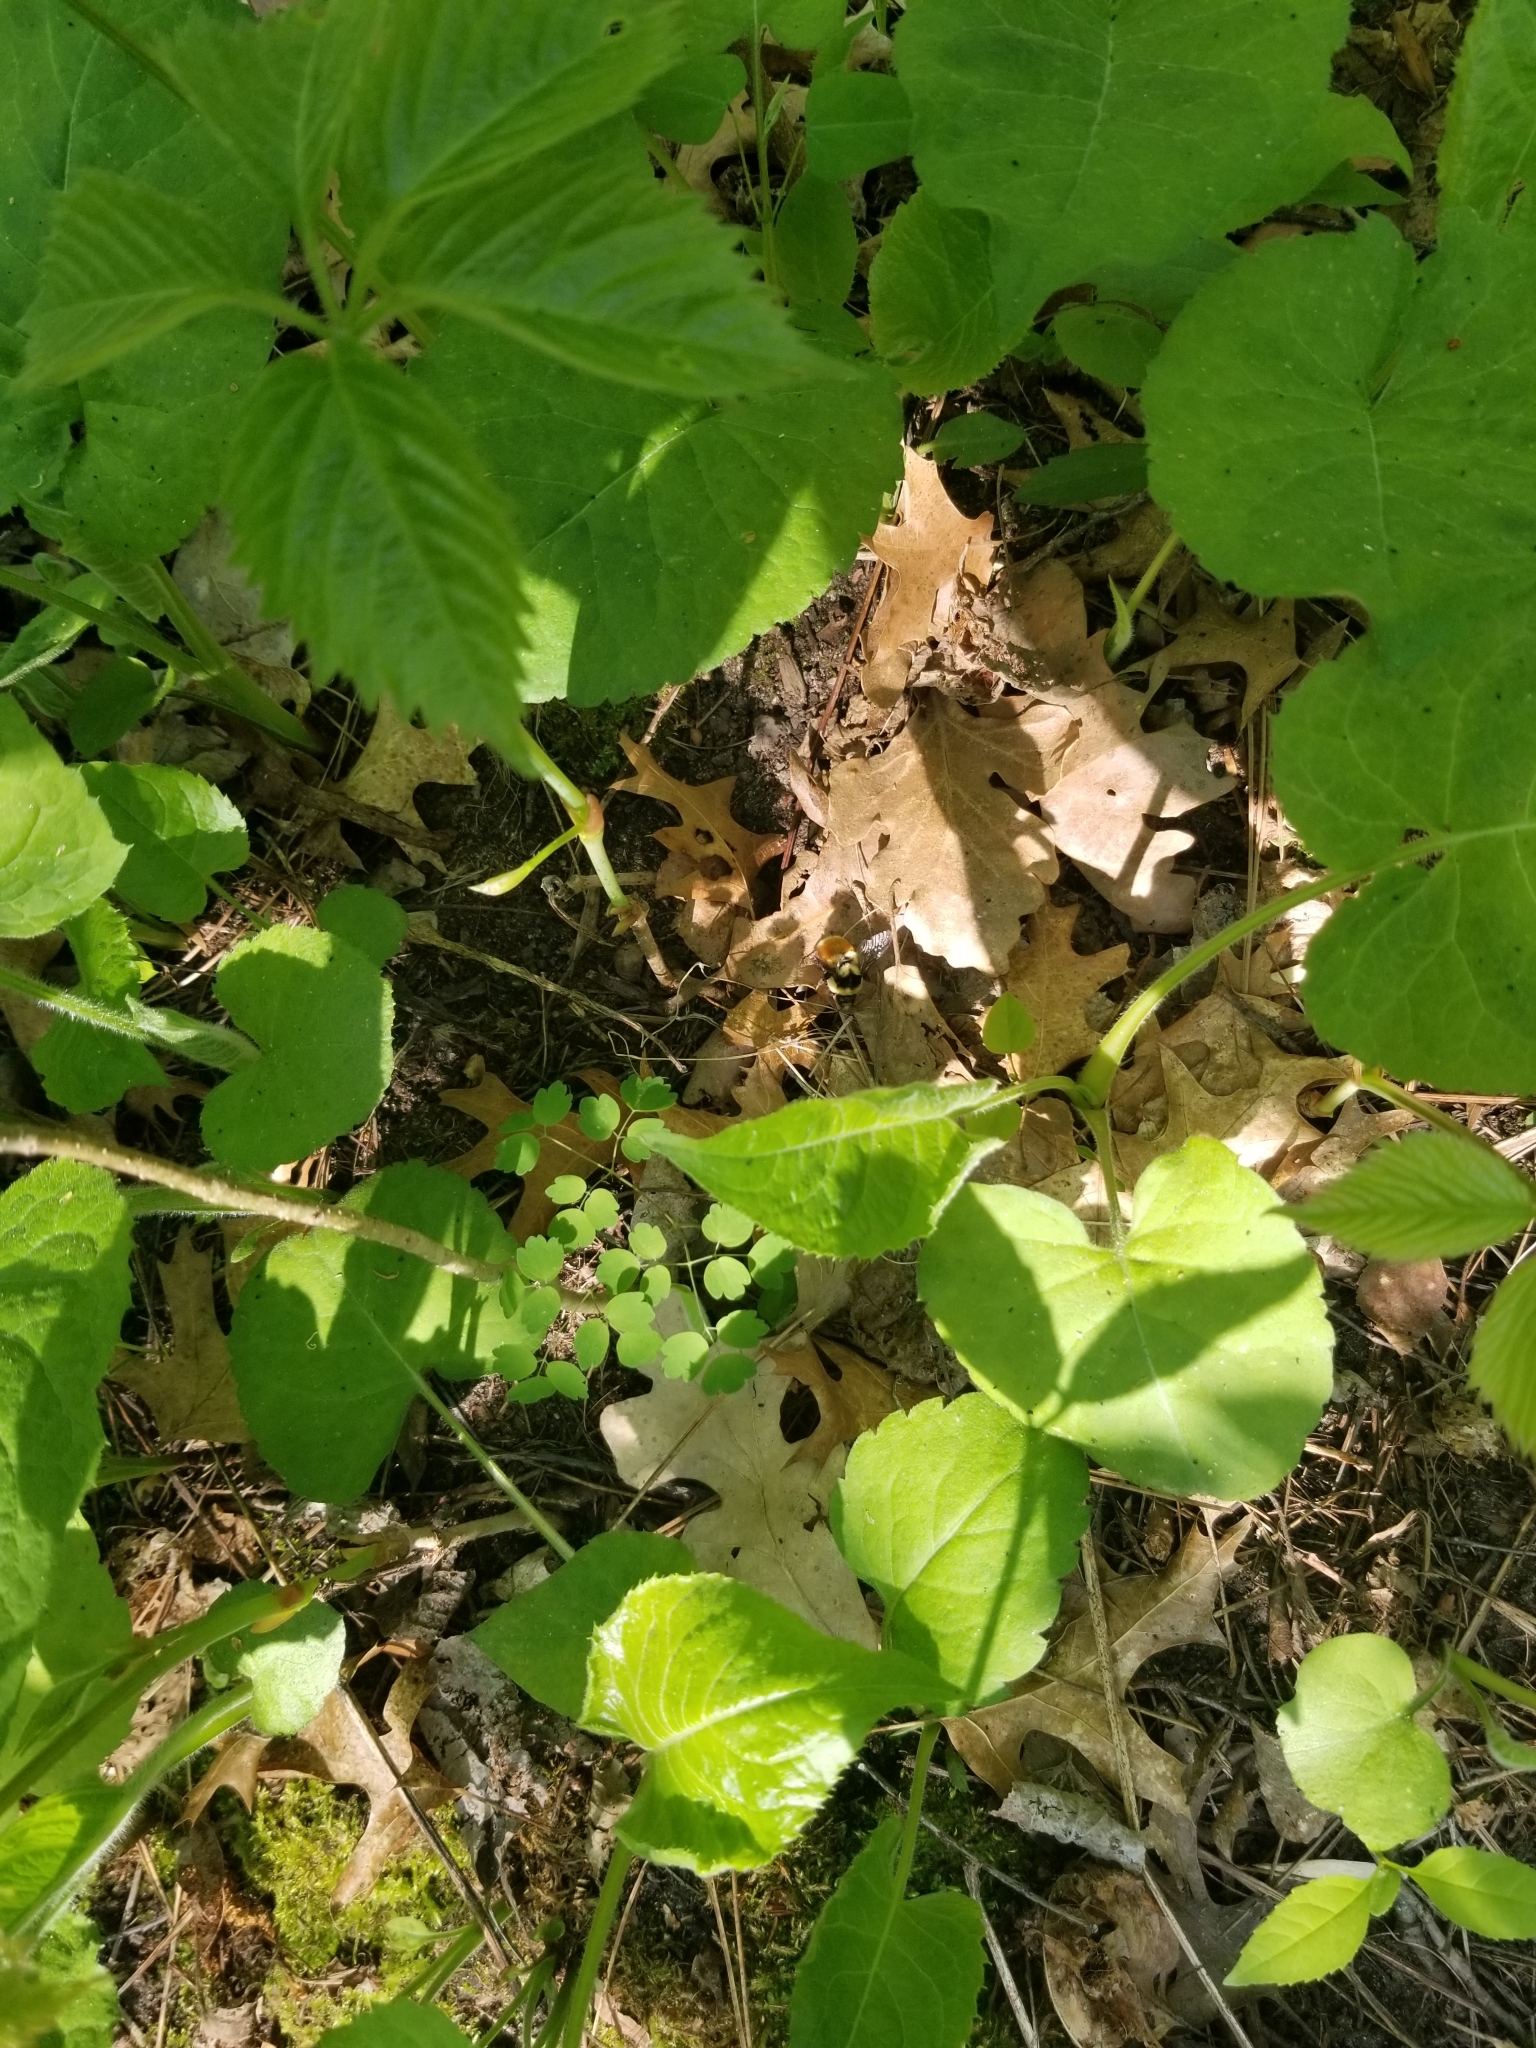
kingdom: Animalia
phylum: Arthropoda
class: Insecta
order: Hymenoptera
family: Apidae
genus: Bombus
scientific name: Bombus ternarius
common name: Tri-colored bumble bee
